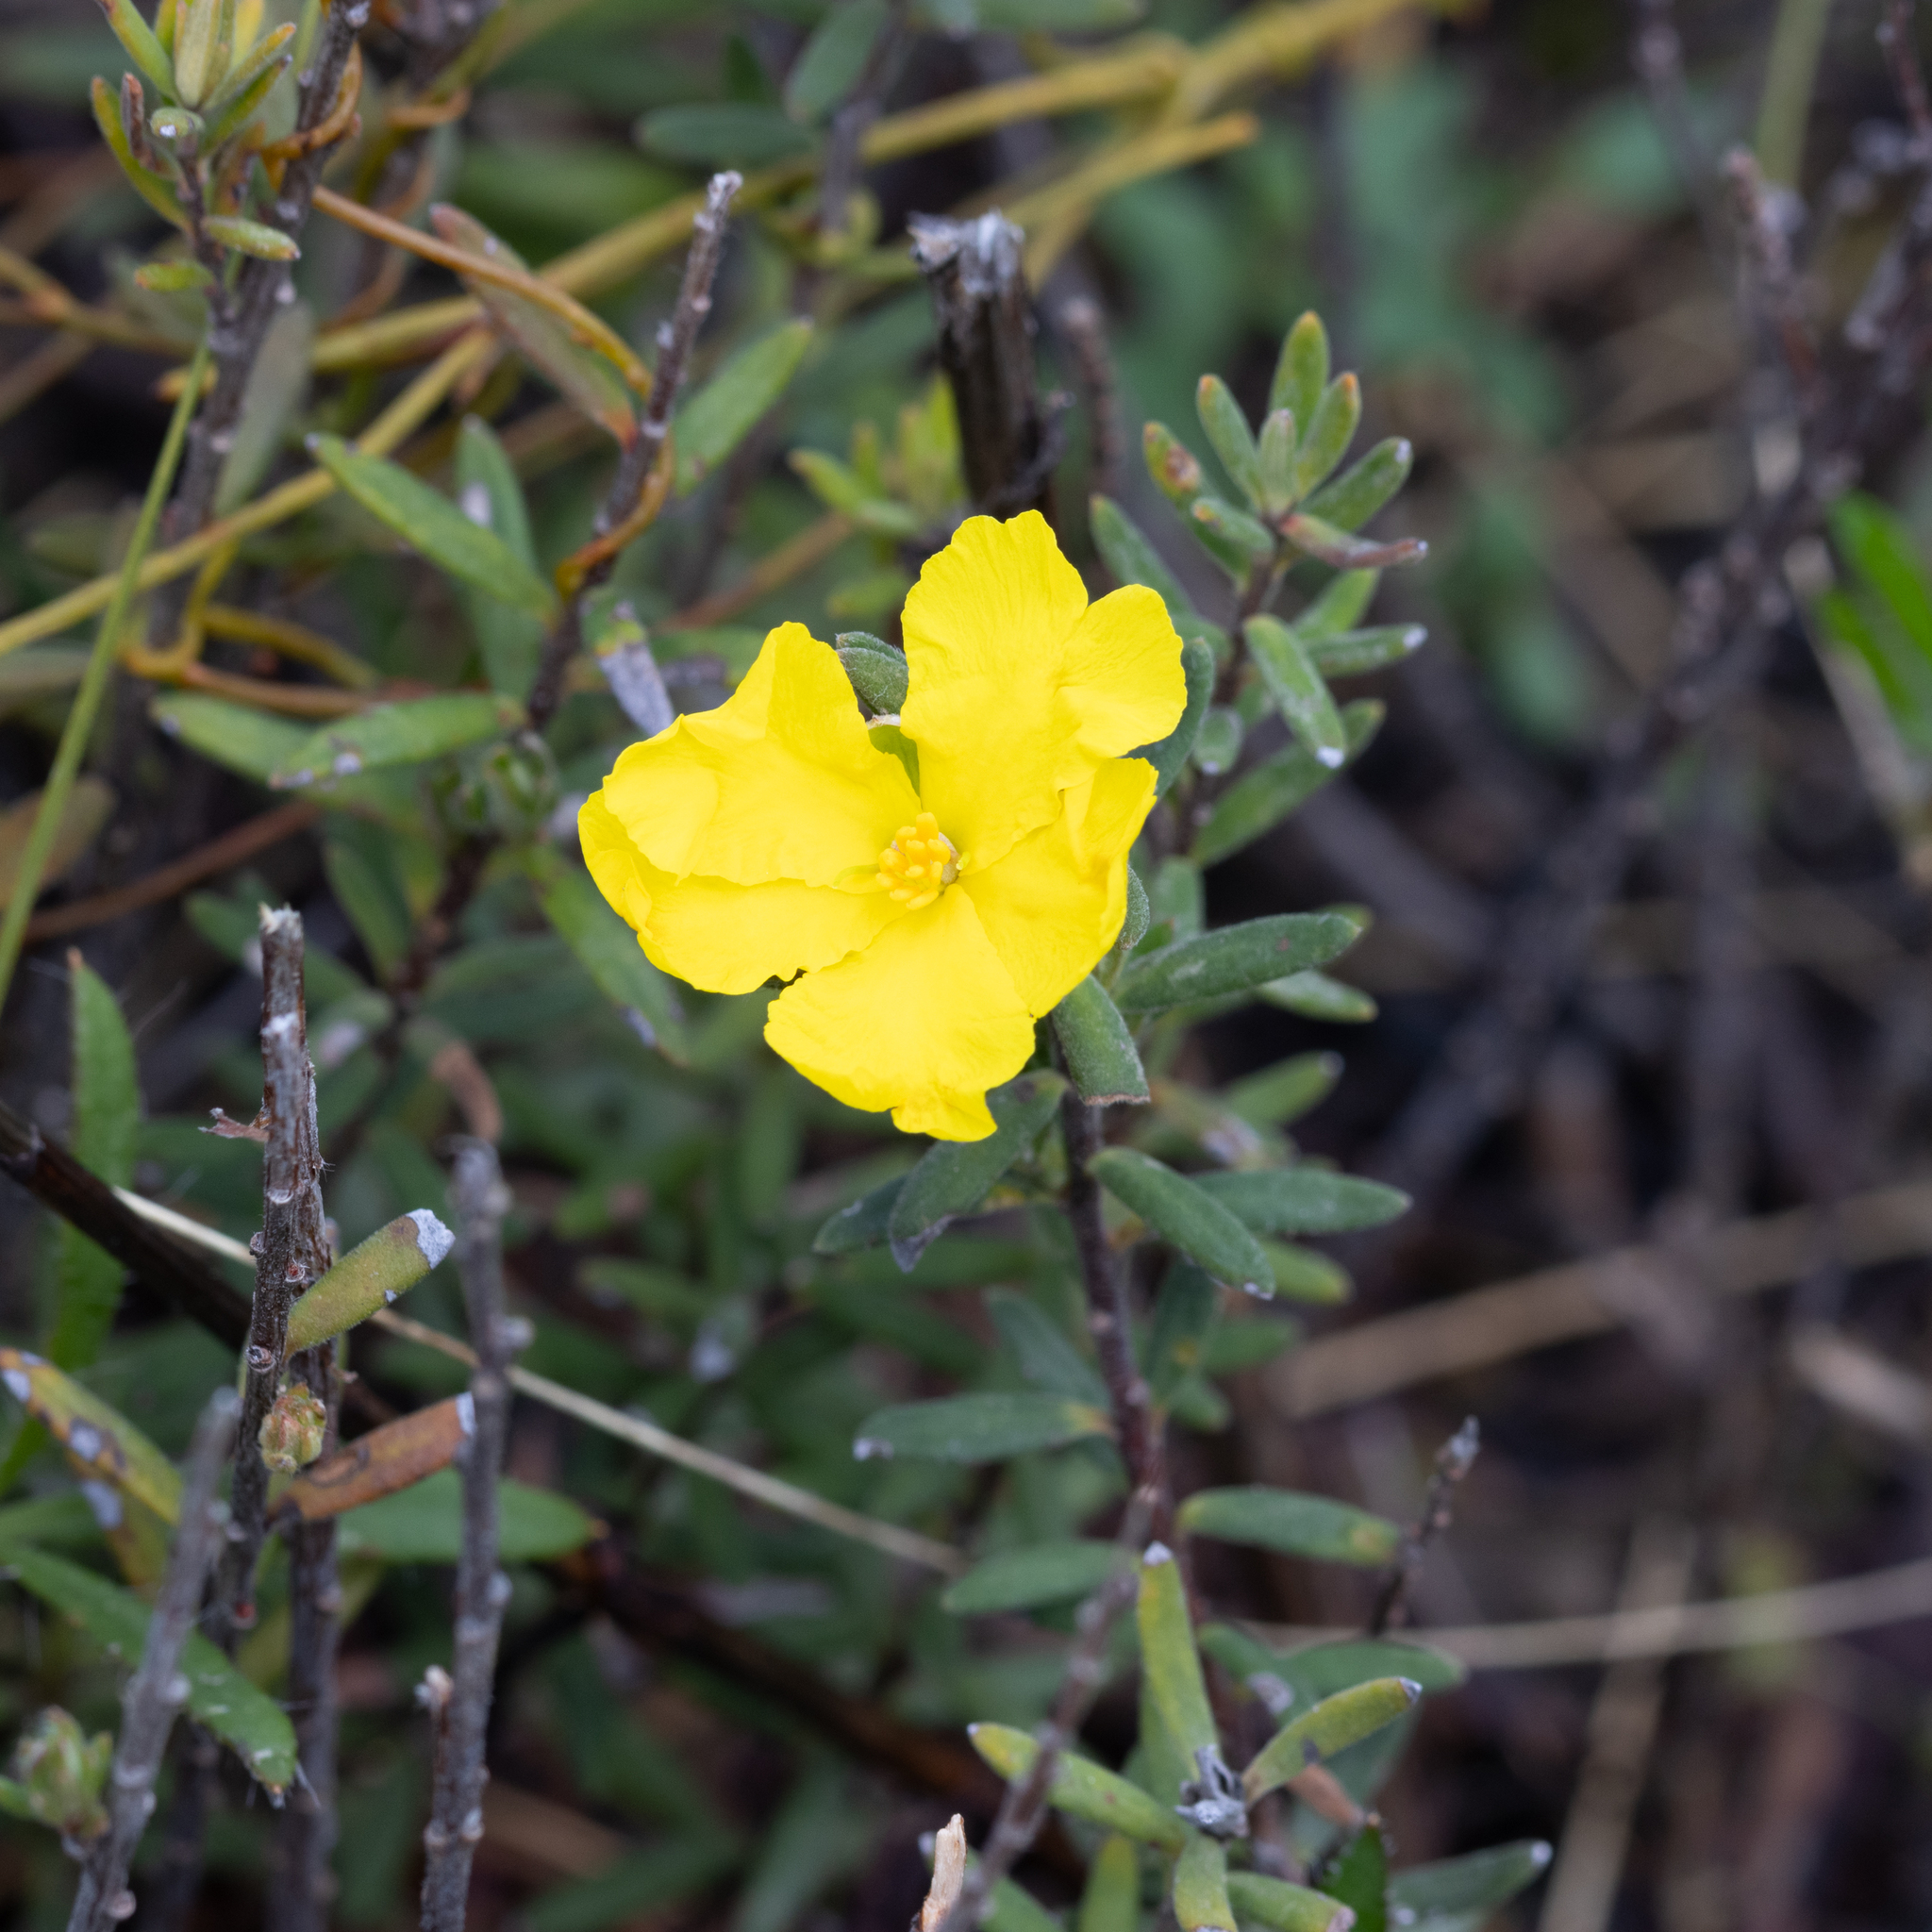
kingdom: Plantae
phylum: Tracheophyta
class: Magnoliopsida
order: Dilleniales
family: Dilleniaceae
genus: Hibbertia
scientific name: Hibbertia crinita
